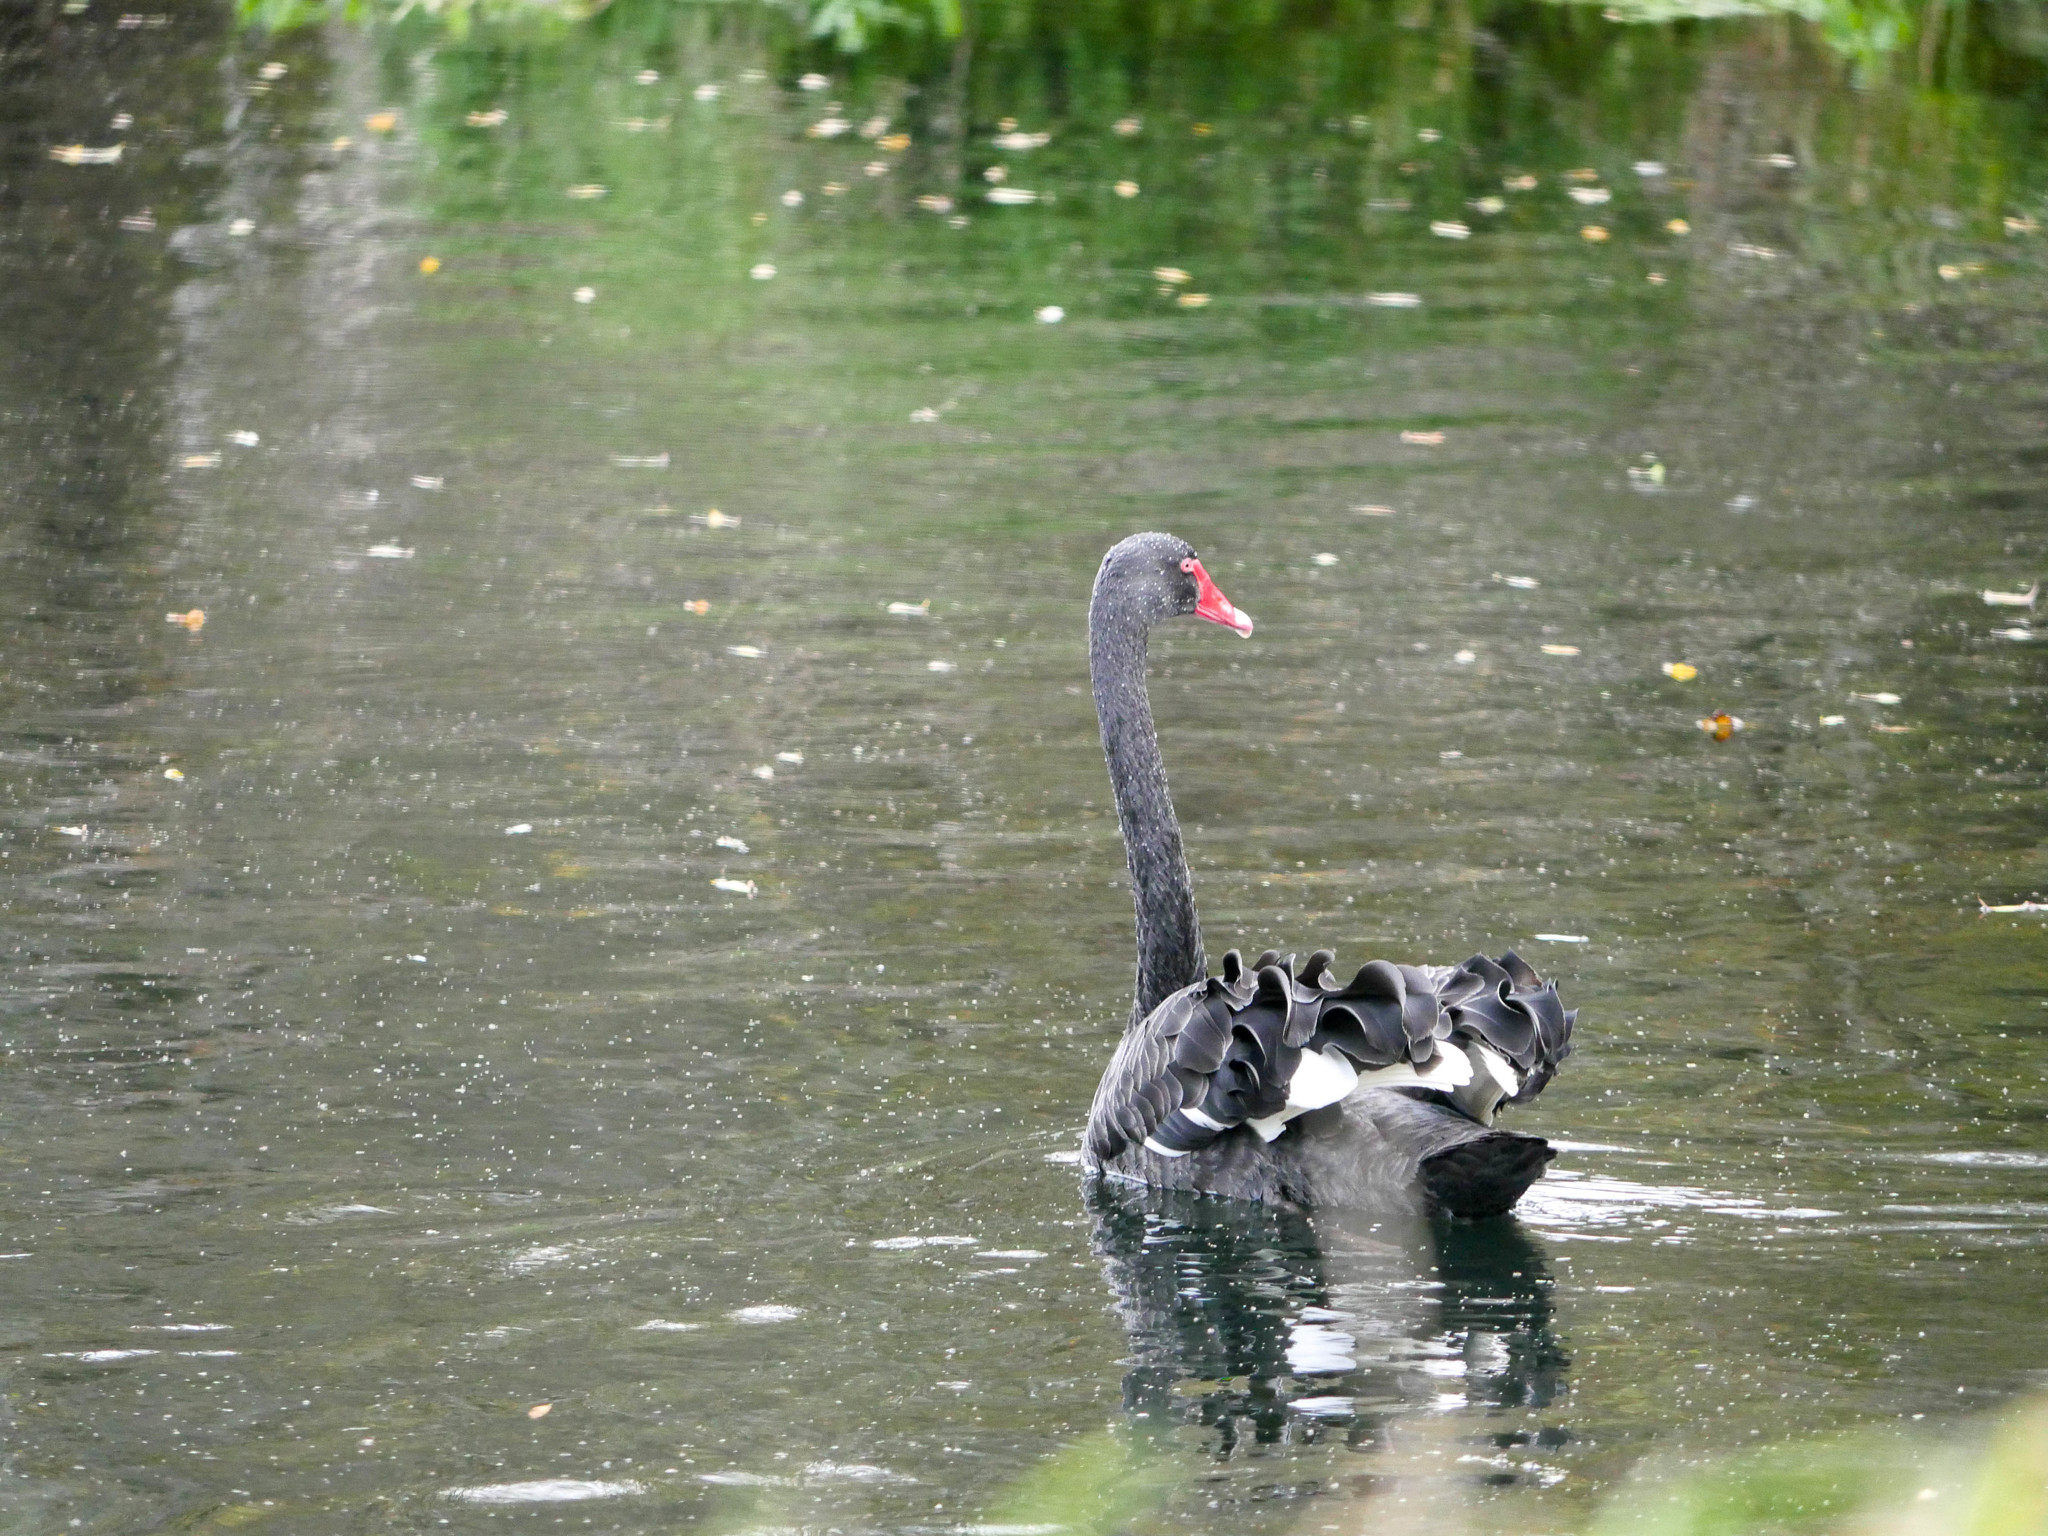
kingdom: Animalia
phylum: Chordata
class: Aves
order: Anseriformes
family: Anatidae
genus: Cygnus
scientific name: Cygnus atratus
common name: Black swan
